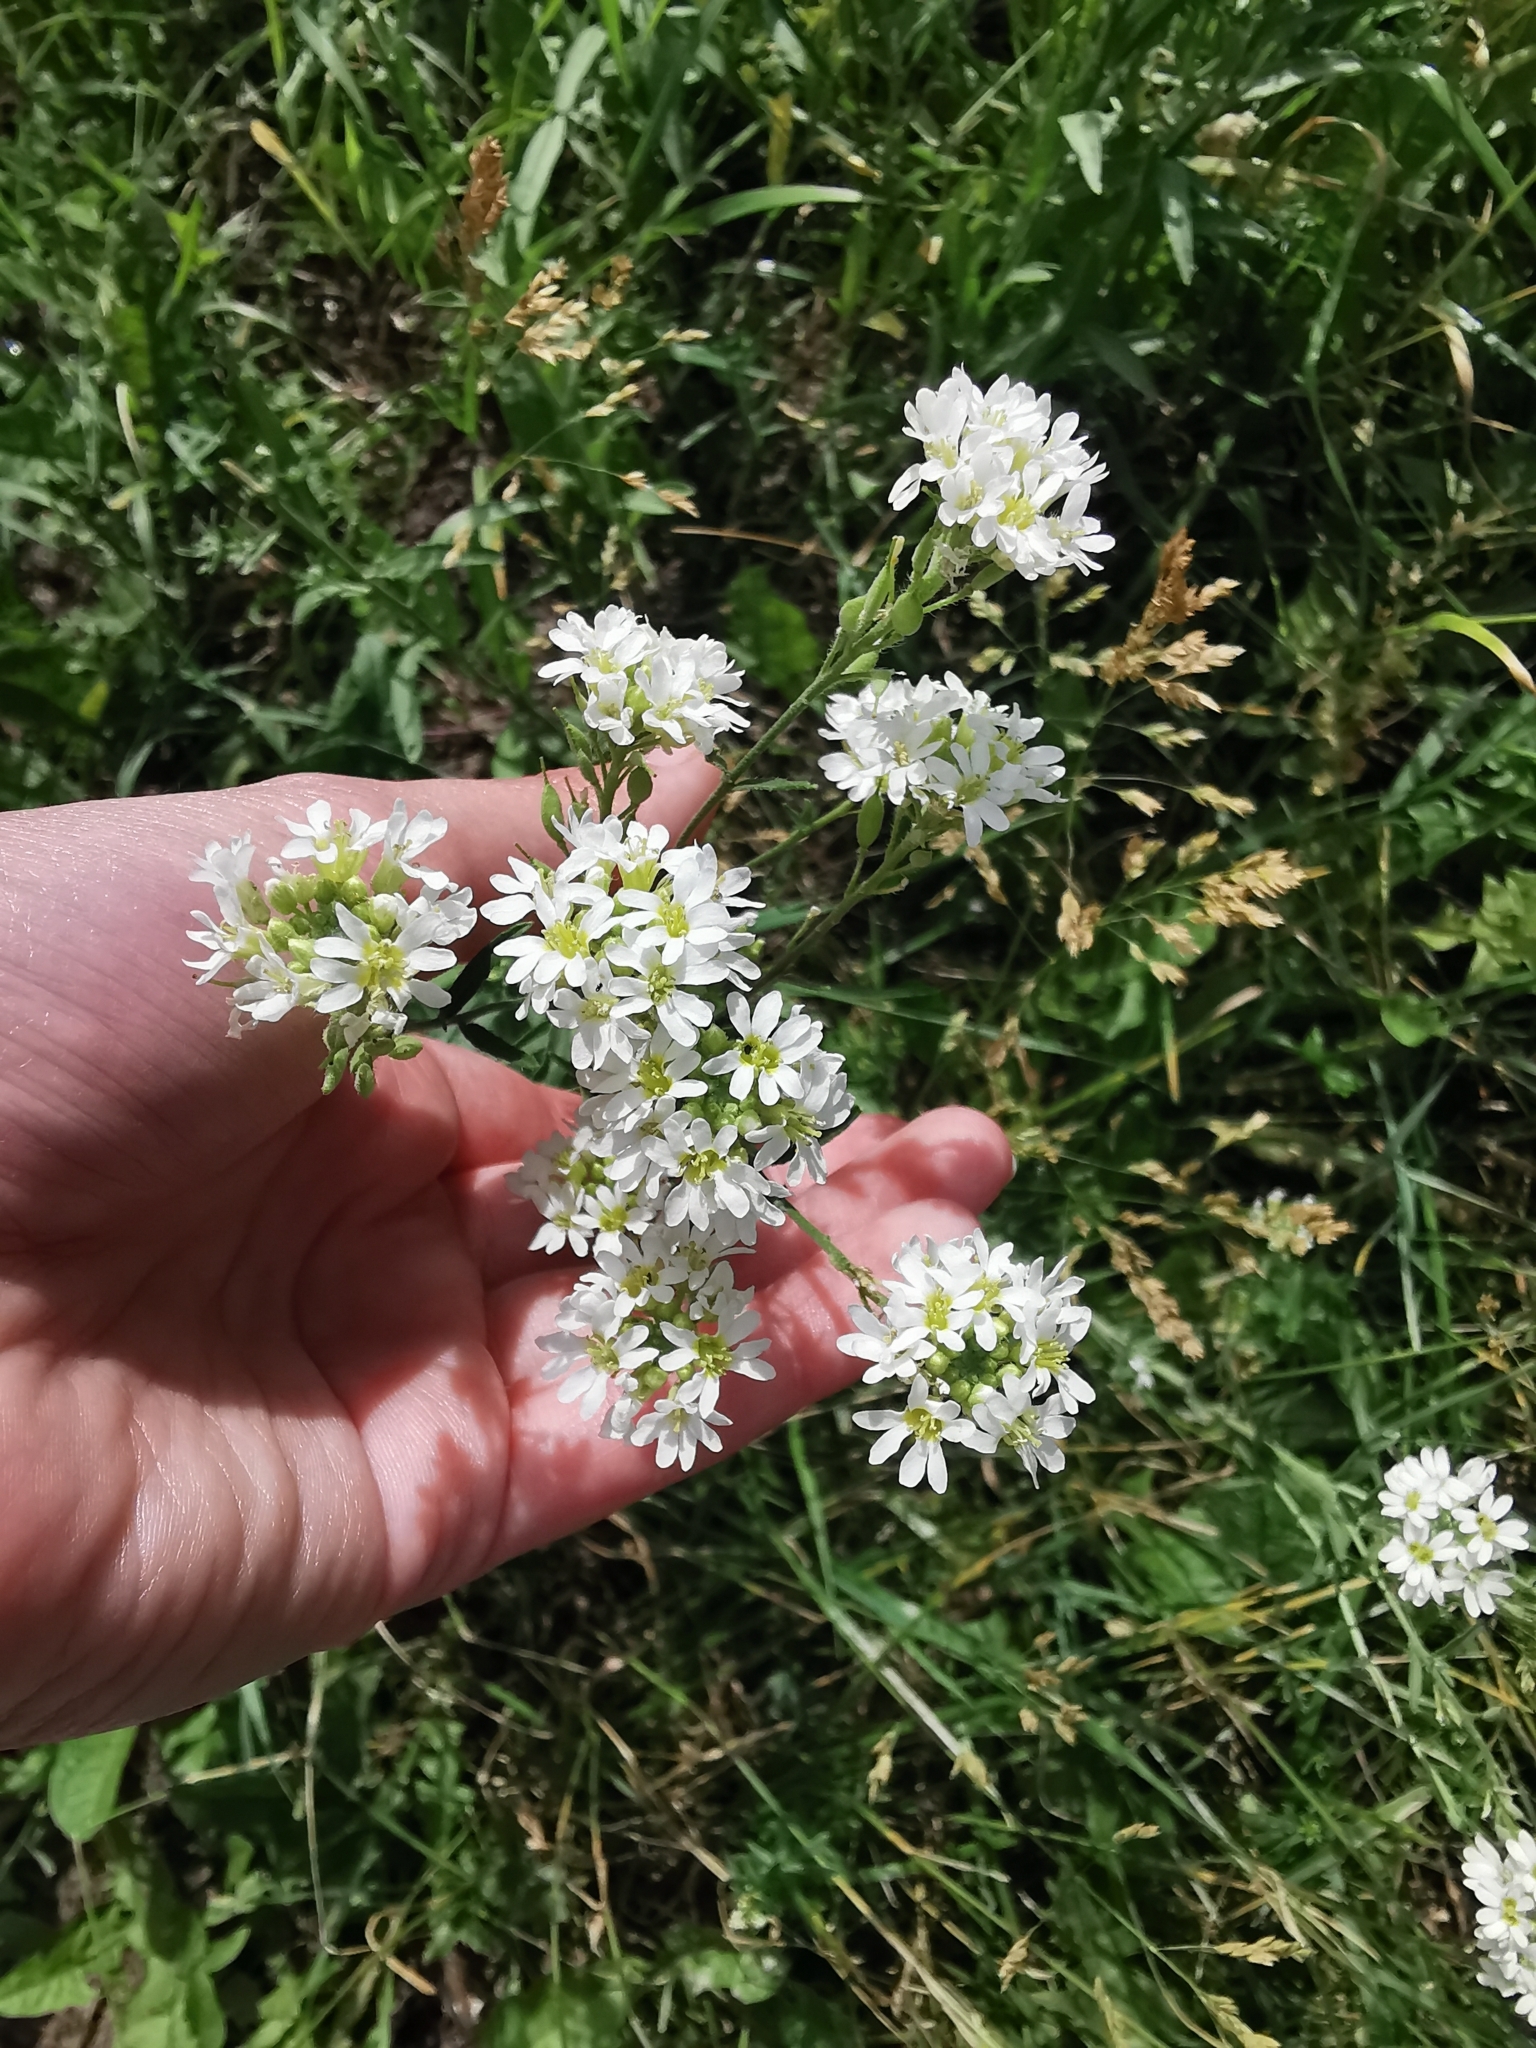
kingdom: Plantae
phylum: Tracheophyta
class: Magnoliopsida
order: Brassicales
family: Brassicaceae
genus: Berteroa
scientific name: Berteroa incana
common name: Hoary alison
